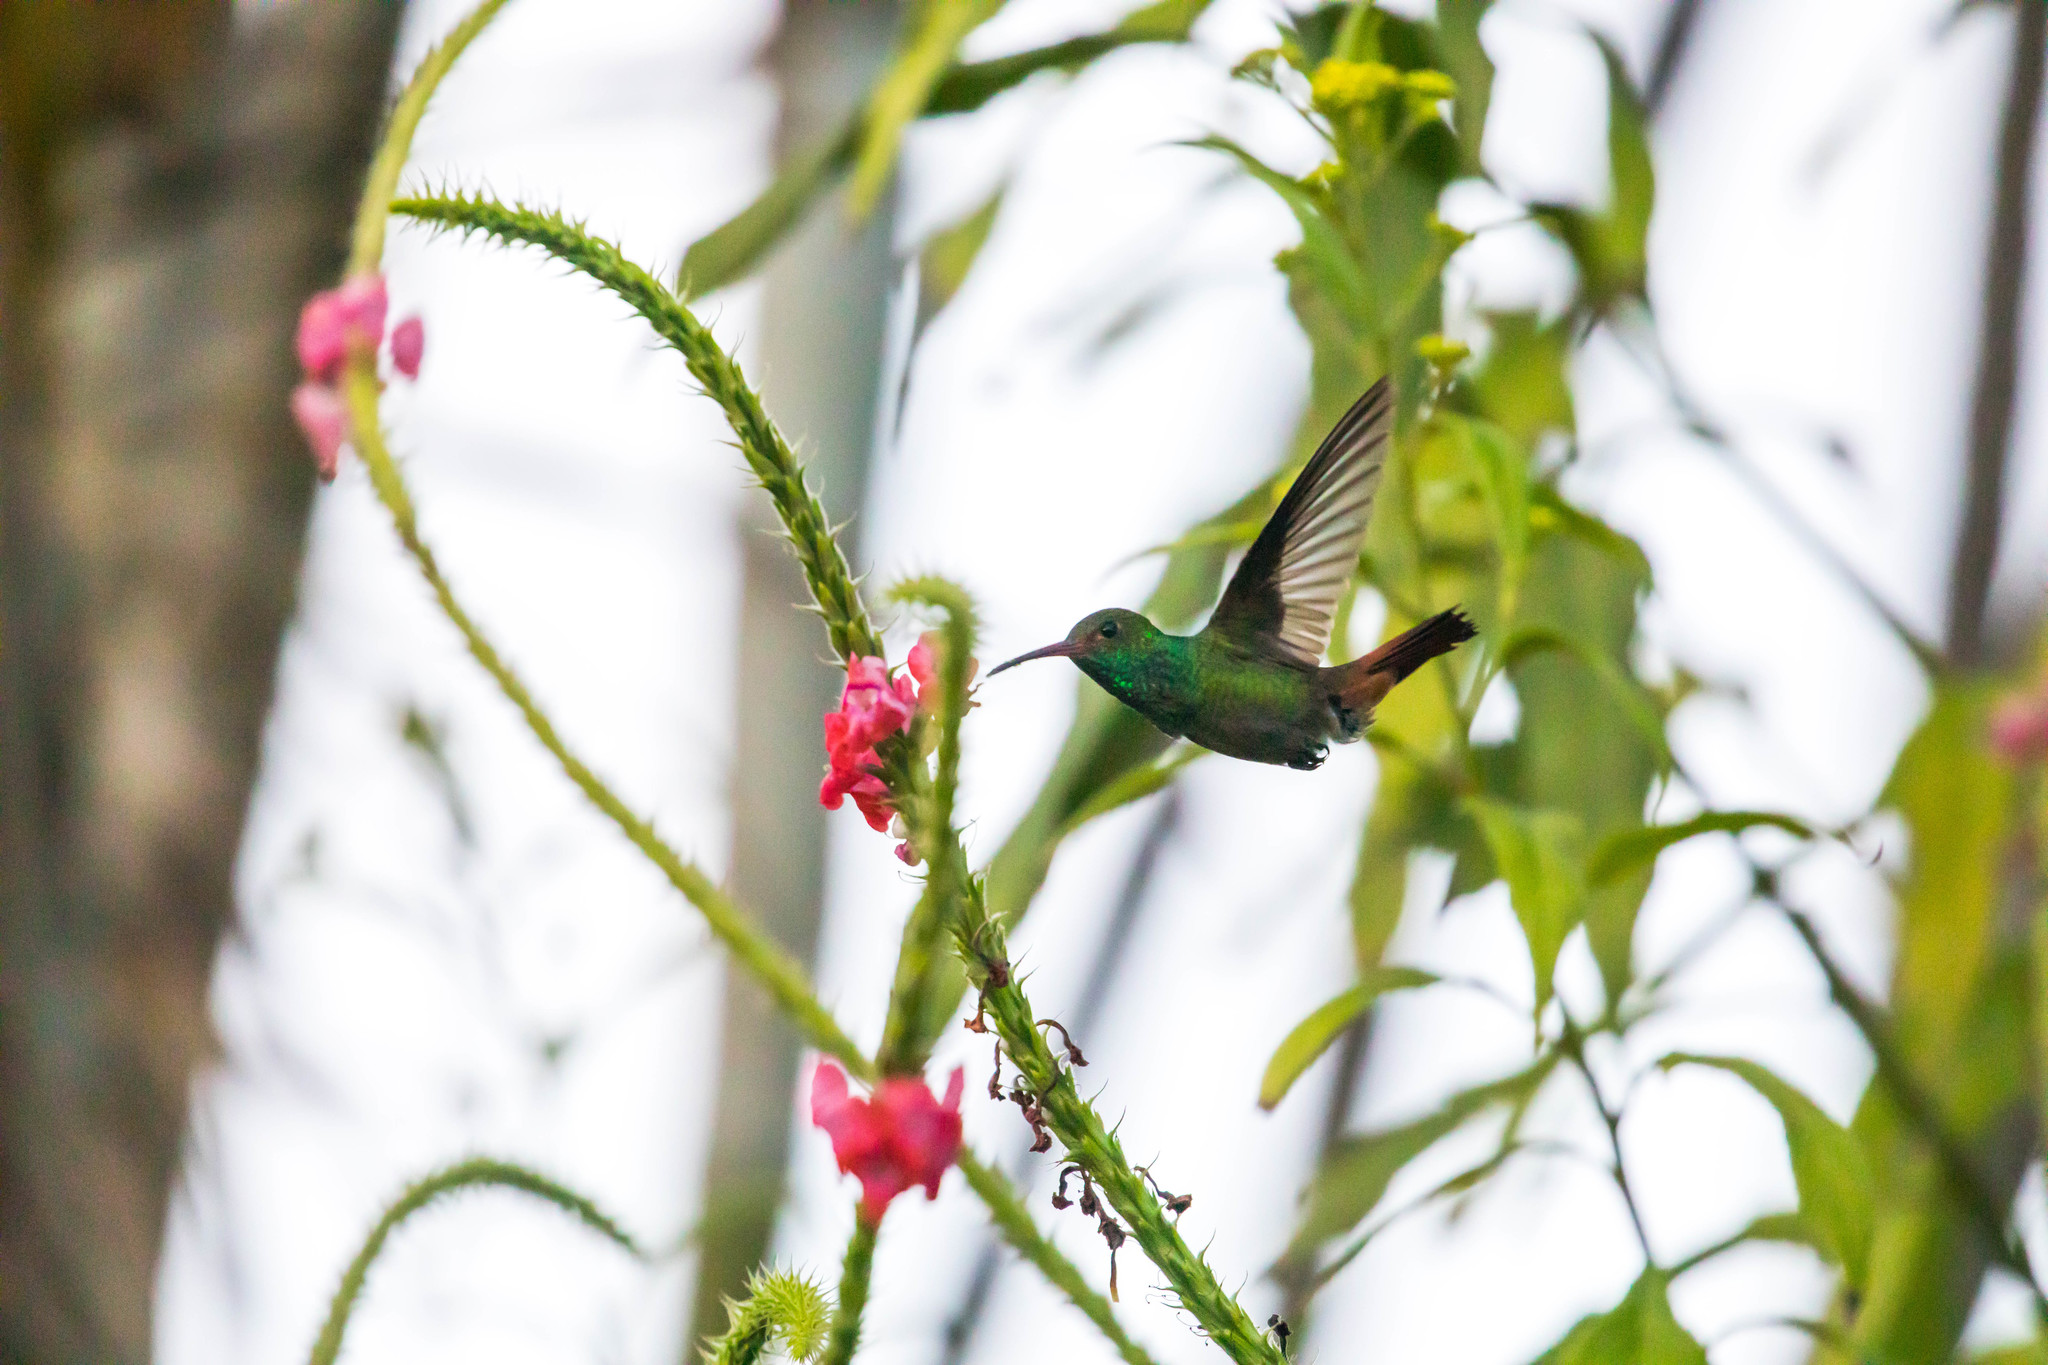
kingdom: Animalia
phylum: Chordata
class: Aves
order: Apodiformes
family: Trochilidae
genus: Amazilia
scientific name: Amazilia tzacatl
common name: Rufous-tailed hummingbird
